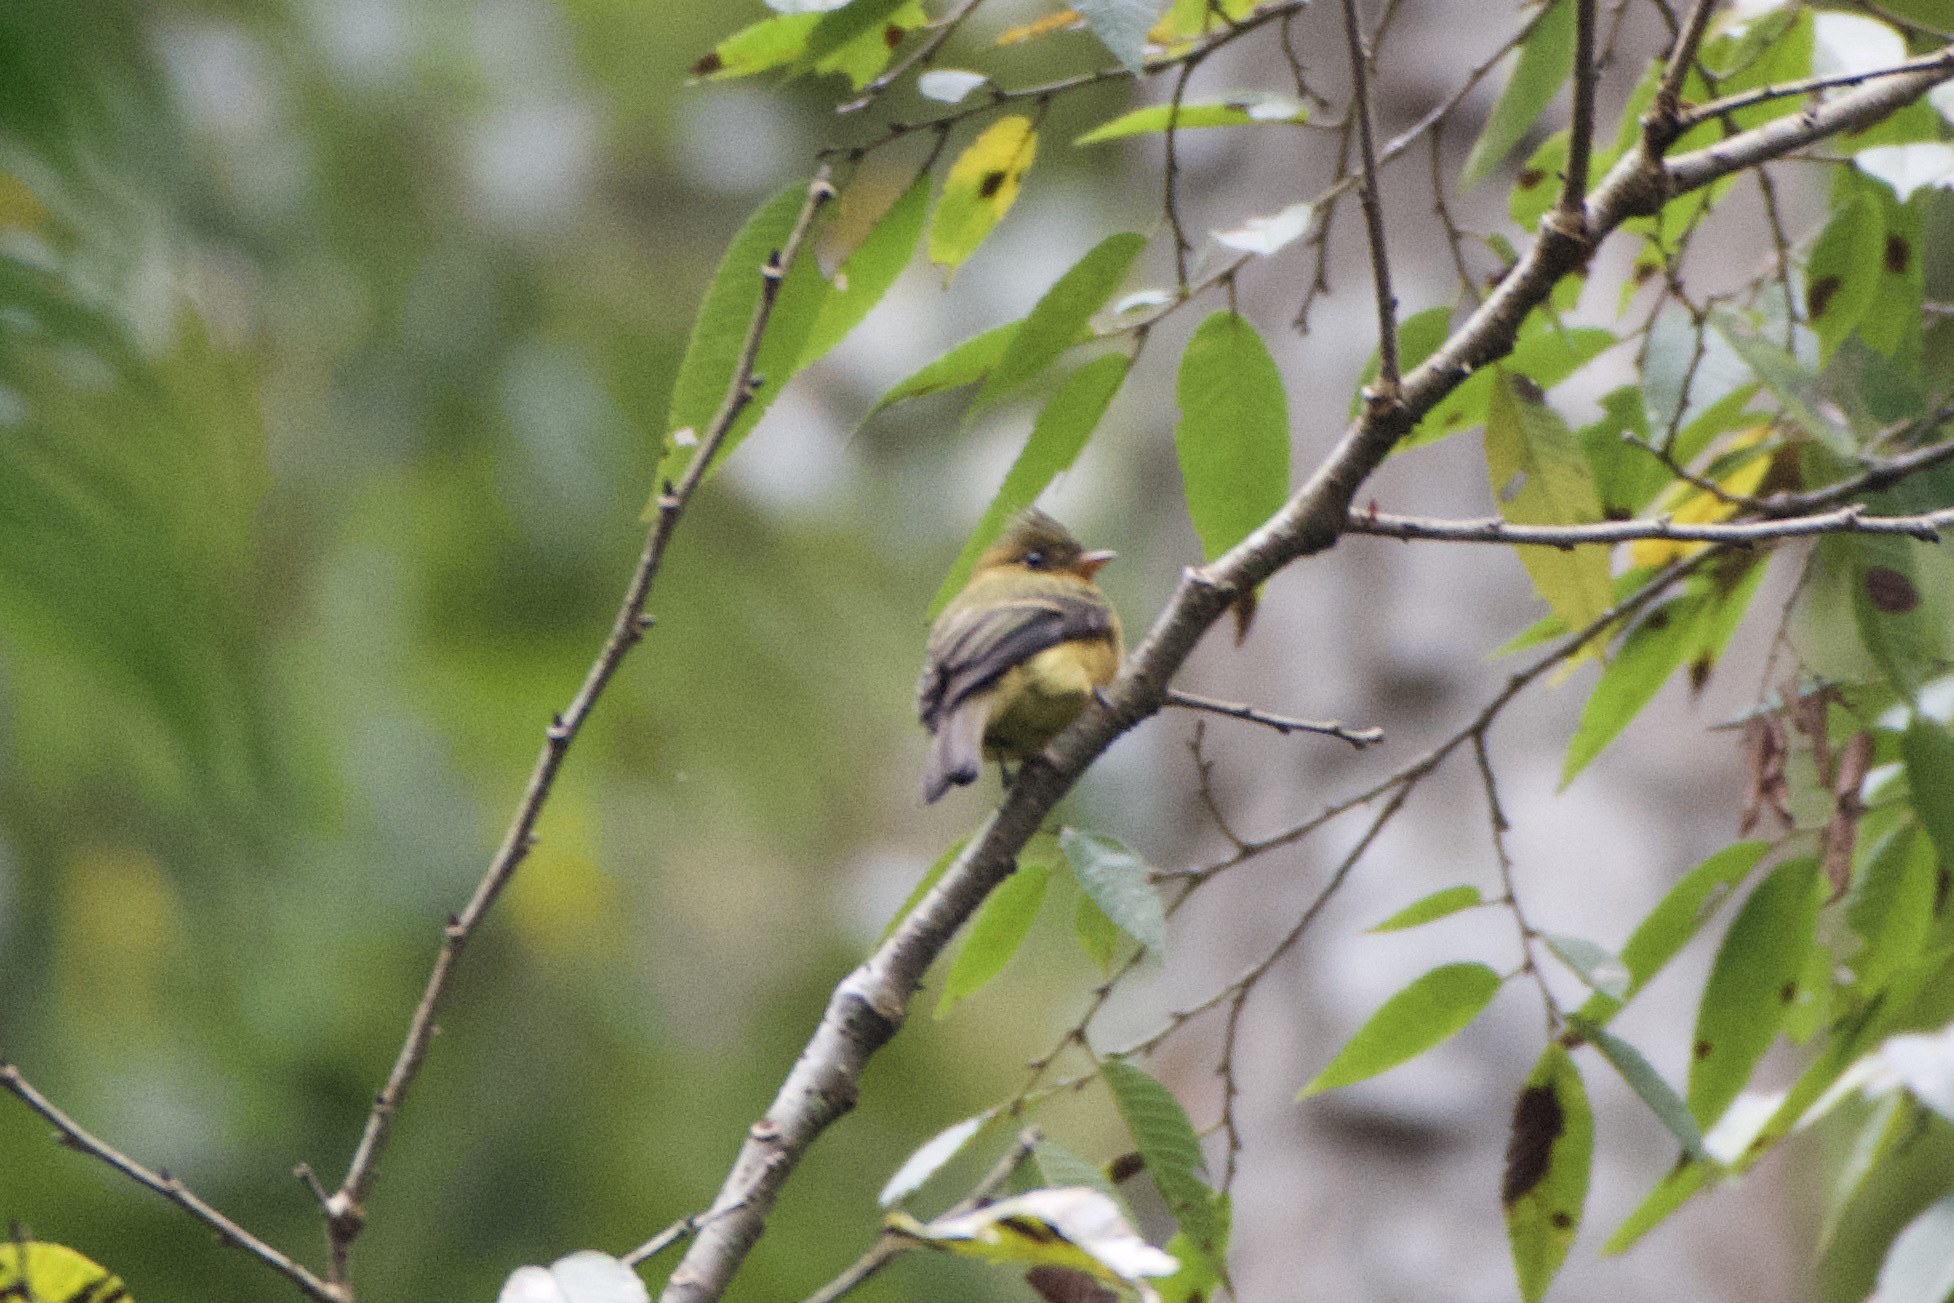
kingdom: Animalia
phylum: Chordata
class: Aves
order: Passeriformes
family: Tyrannidae
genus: Mitrephanes
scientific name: Mitrephanes phaeocercus
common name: Northern tufted flycatcher
